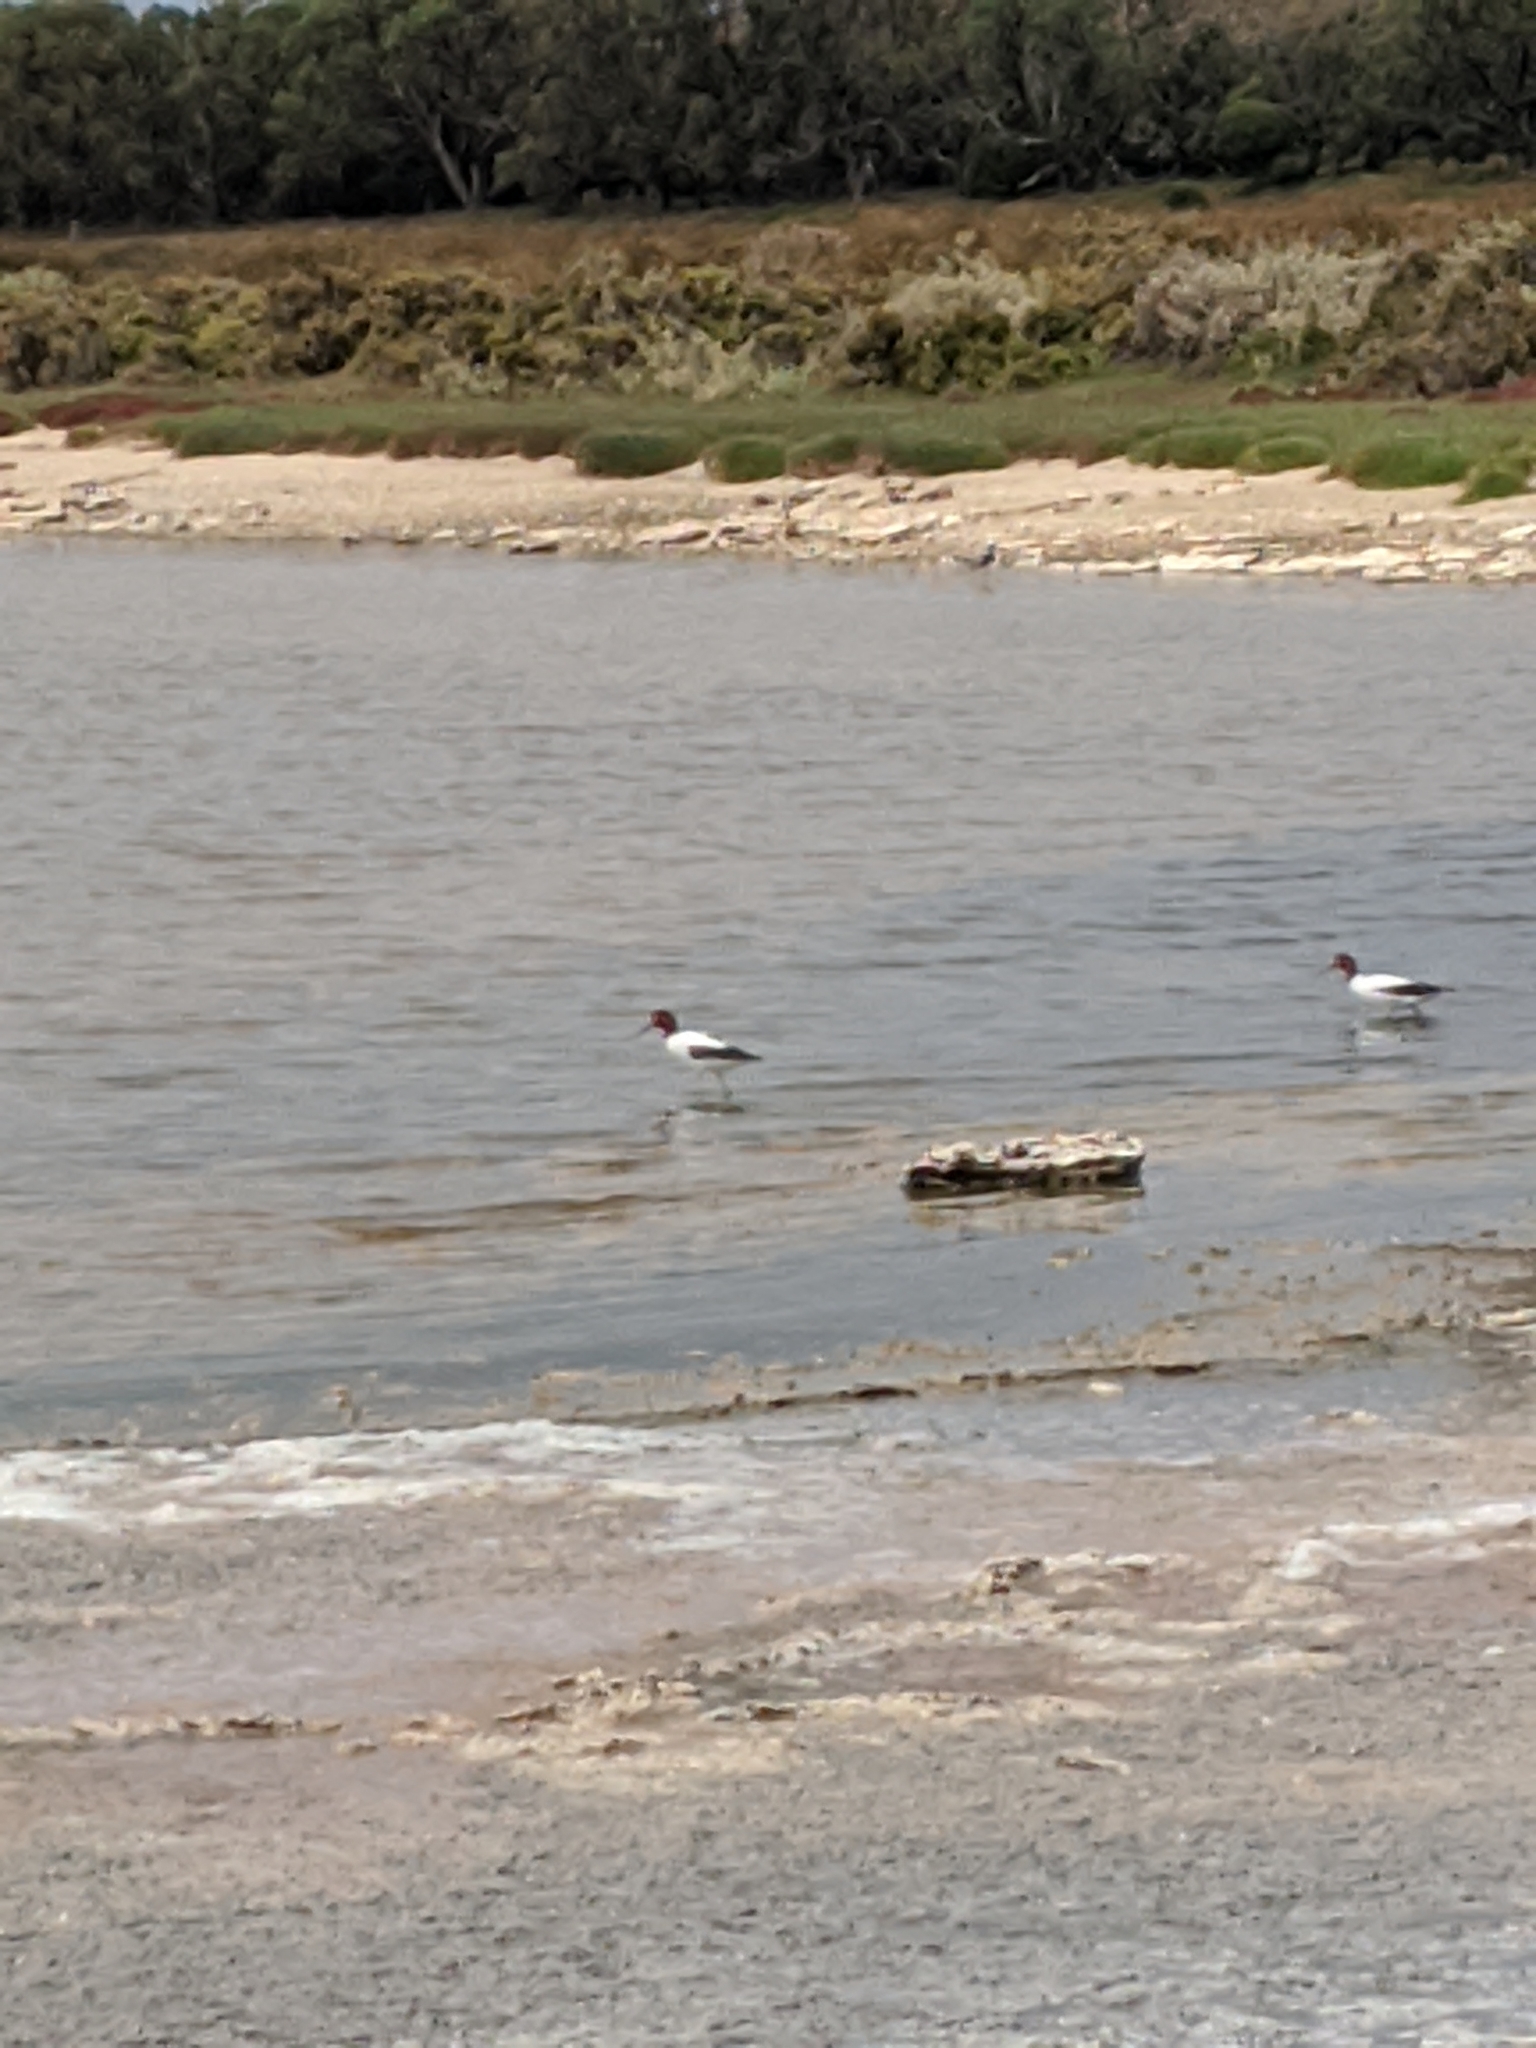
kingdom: Animalia
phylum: Chordata
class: Aves
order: Charadriiformes
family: Recurvirostridae
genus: Recurvirostra
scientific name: Recurvirostra novaehollandiae
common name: Red-necked avocet
